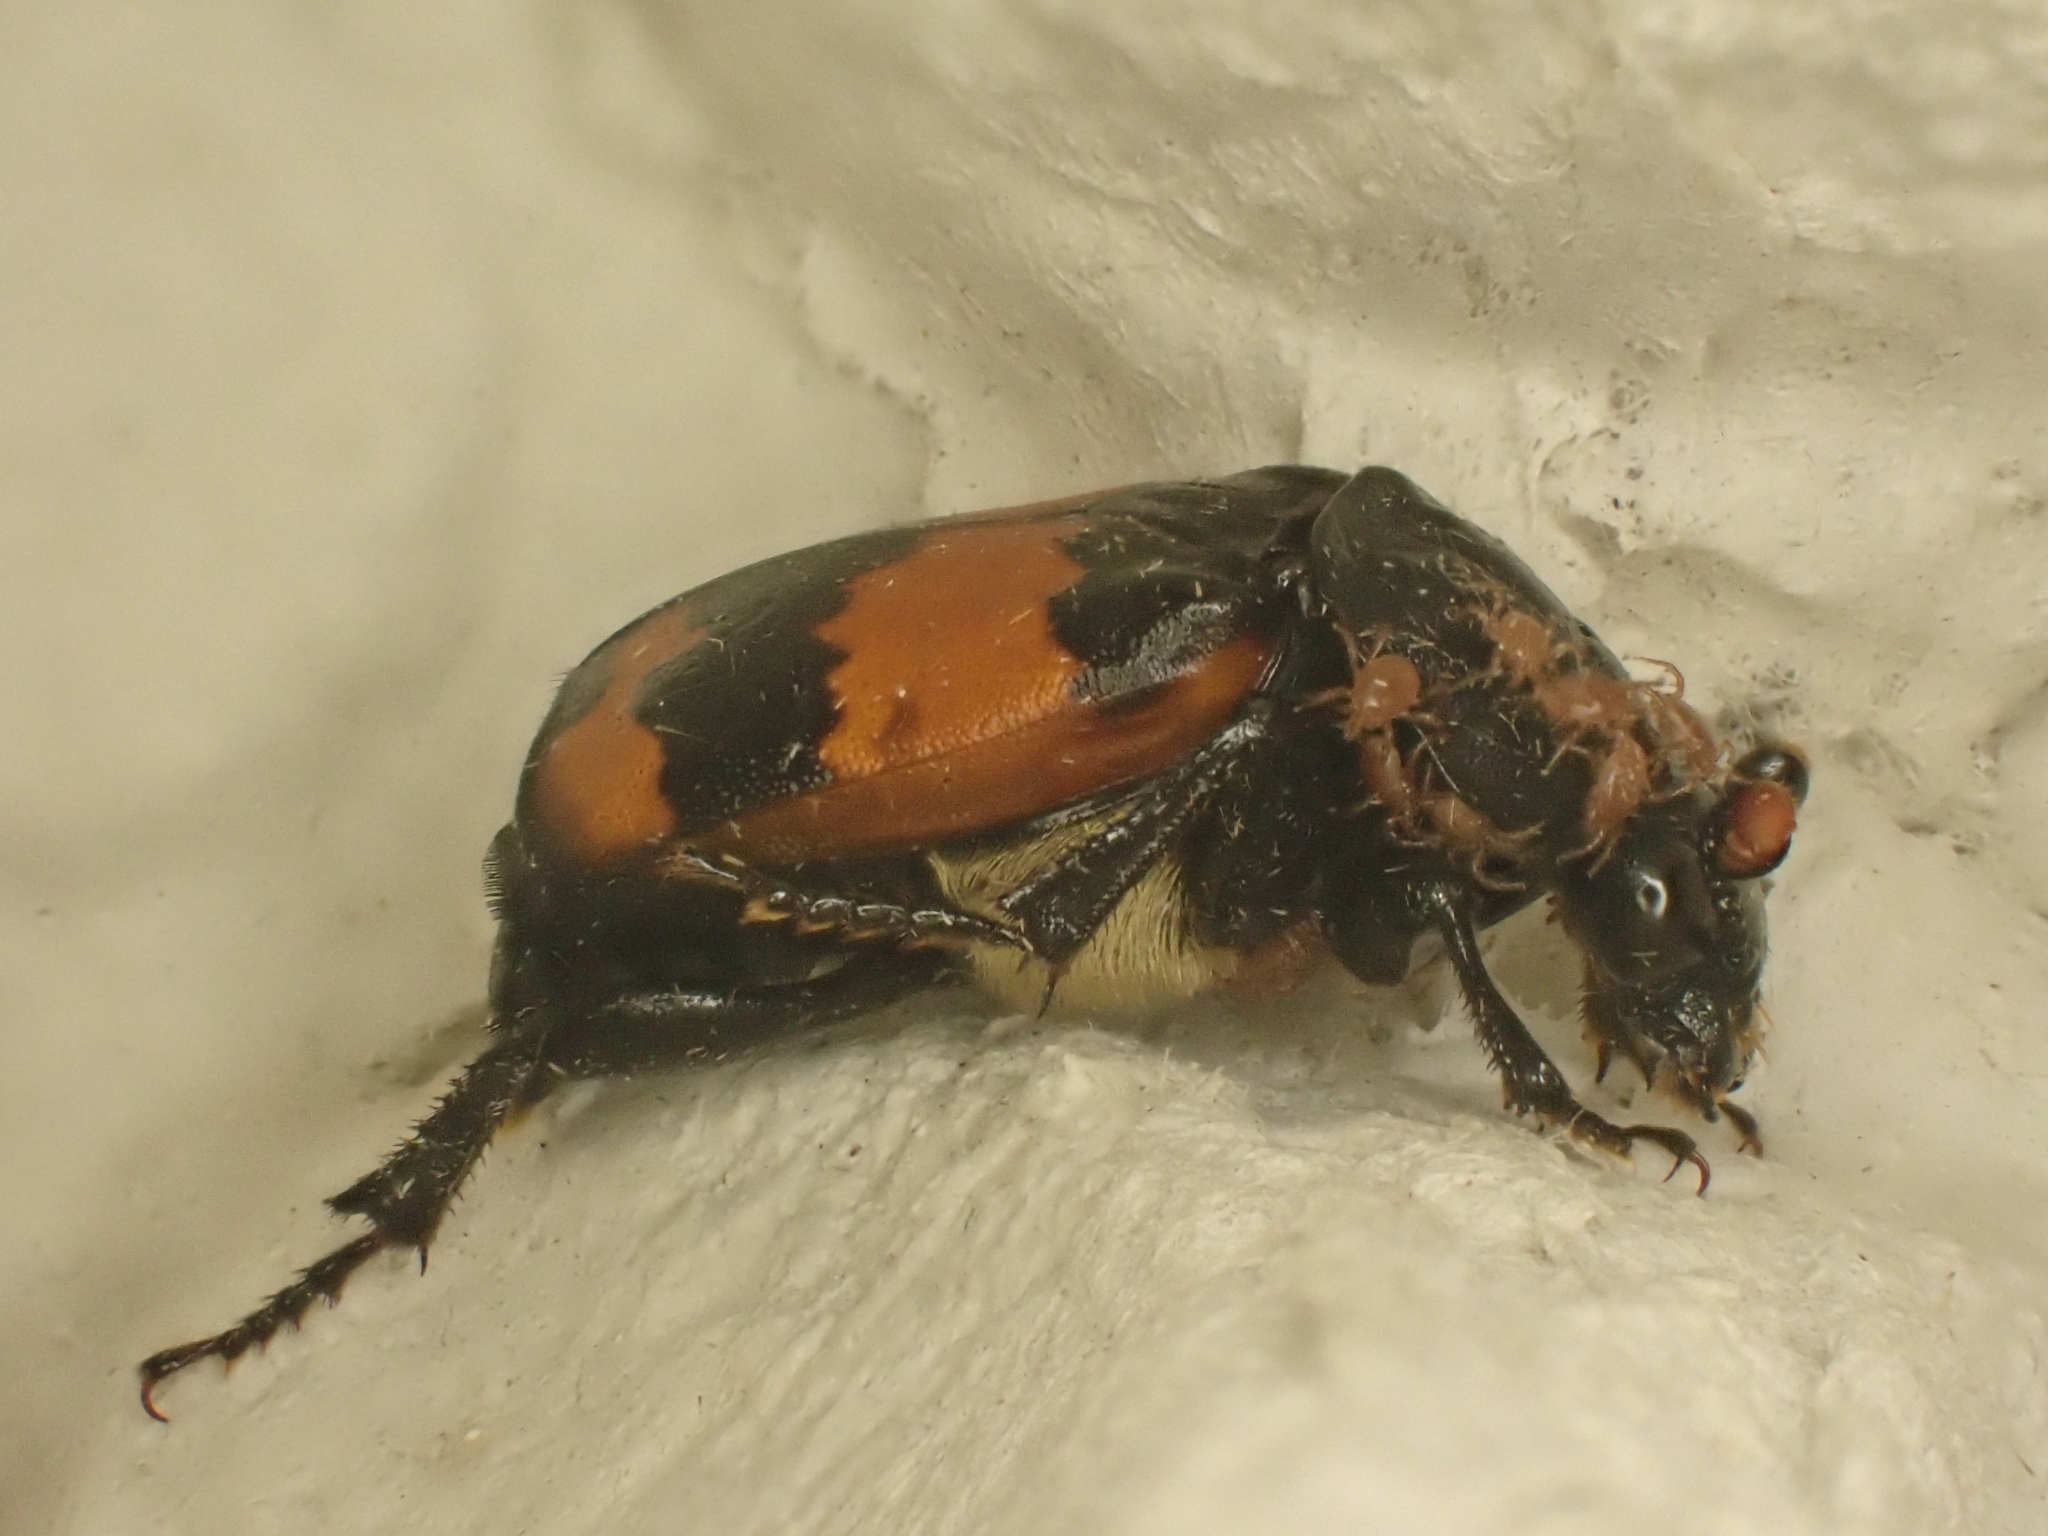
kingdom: Animalia
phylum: Arthropoda
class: Insecta
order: Coleoptera
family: Staphylinidae
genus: Nicrophorus
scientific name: Nicrophorus investigator
